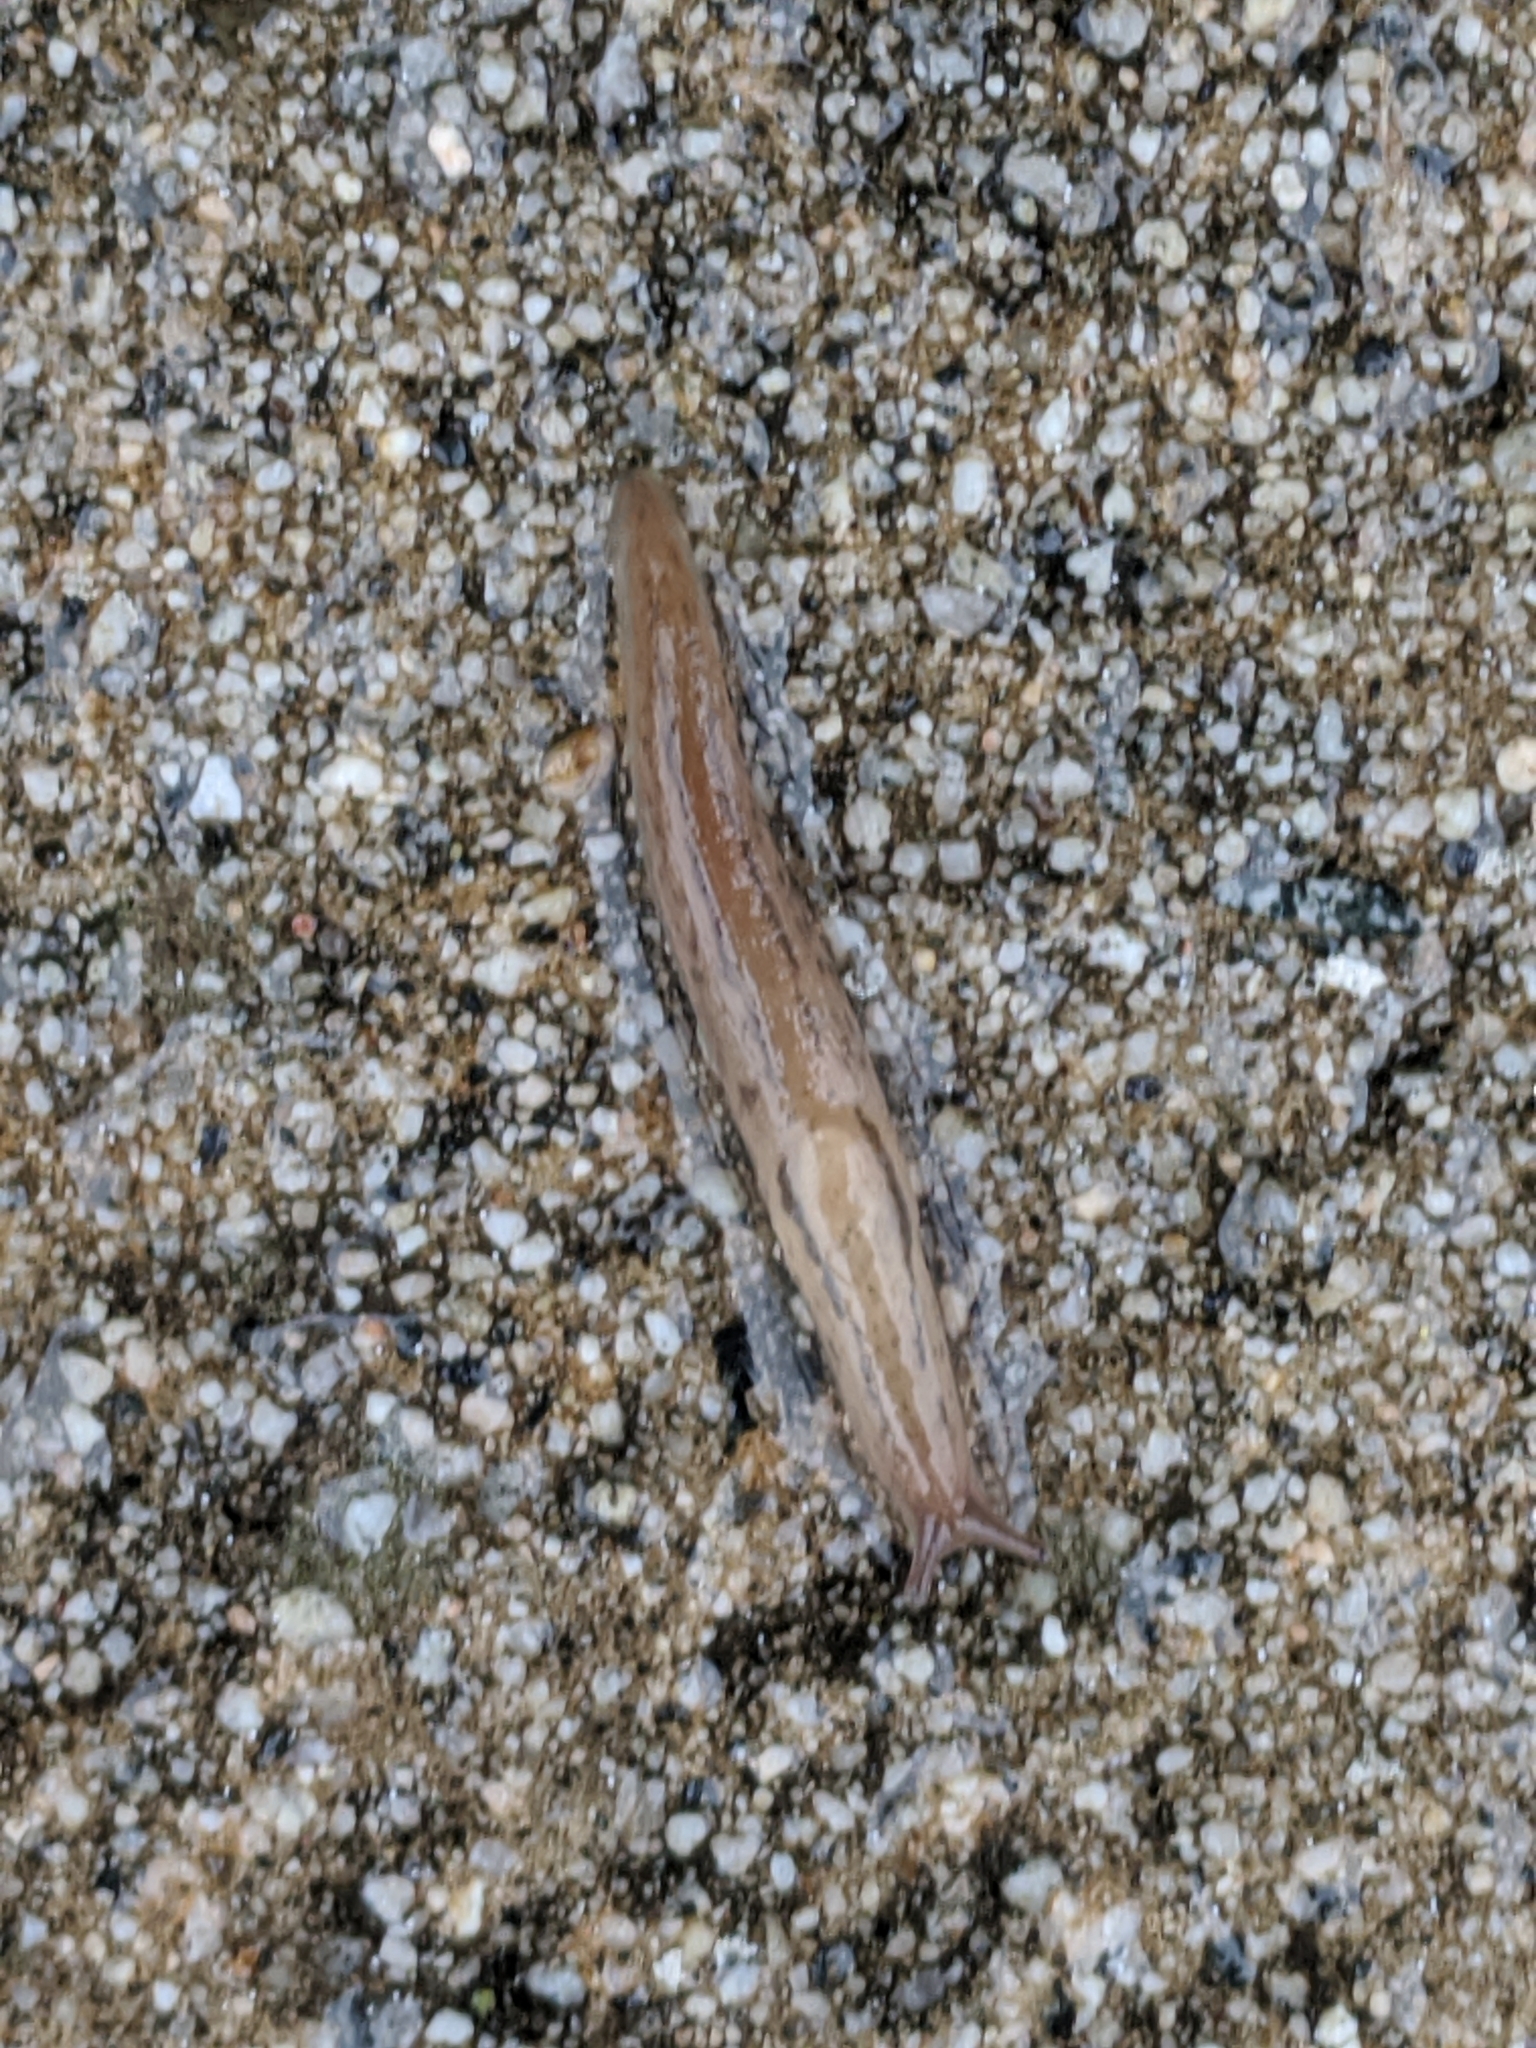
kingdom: Animalia
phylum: Mollusca
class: Gastropoda
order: Stylommatophora
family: Limacidae
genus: Ambigolimax
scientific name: Ambigolimax
